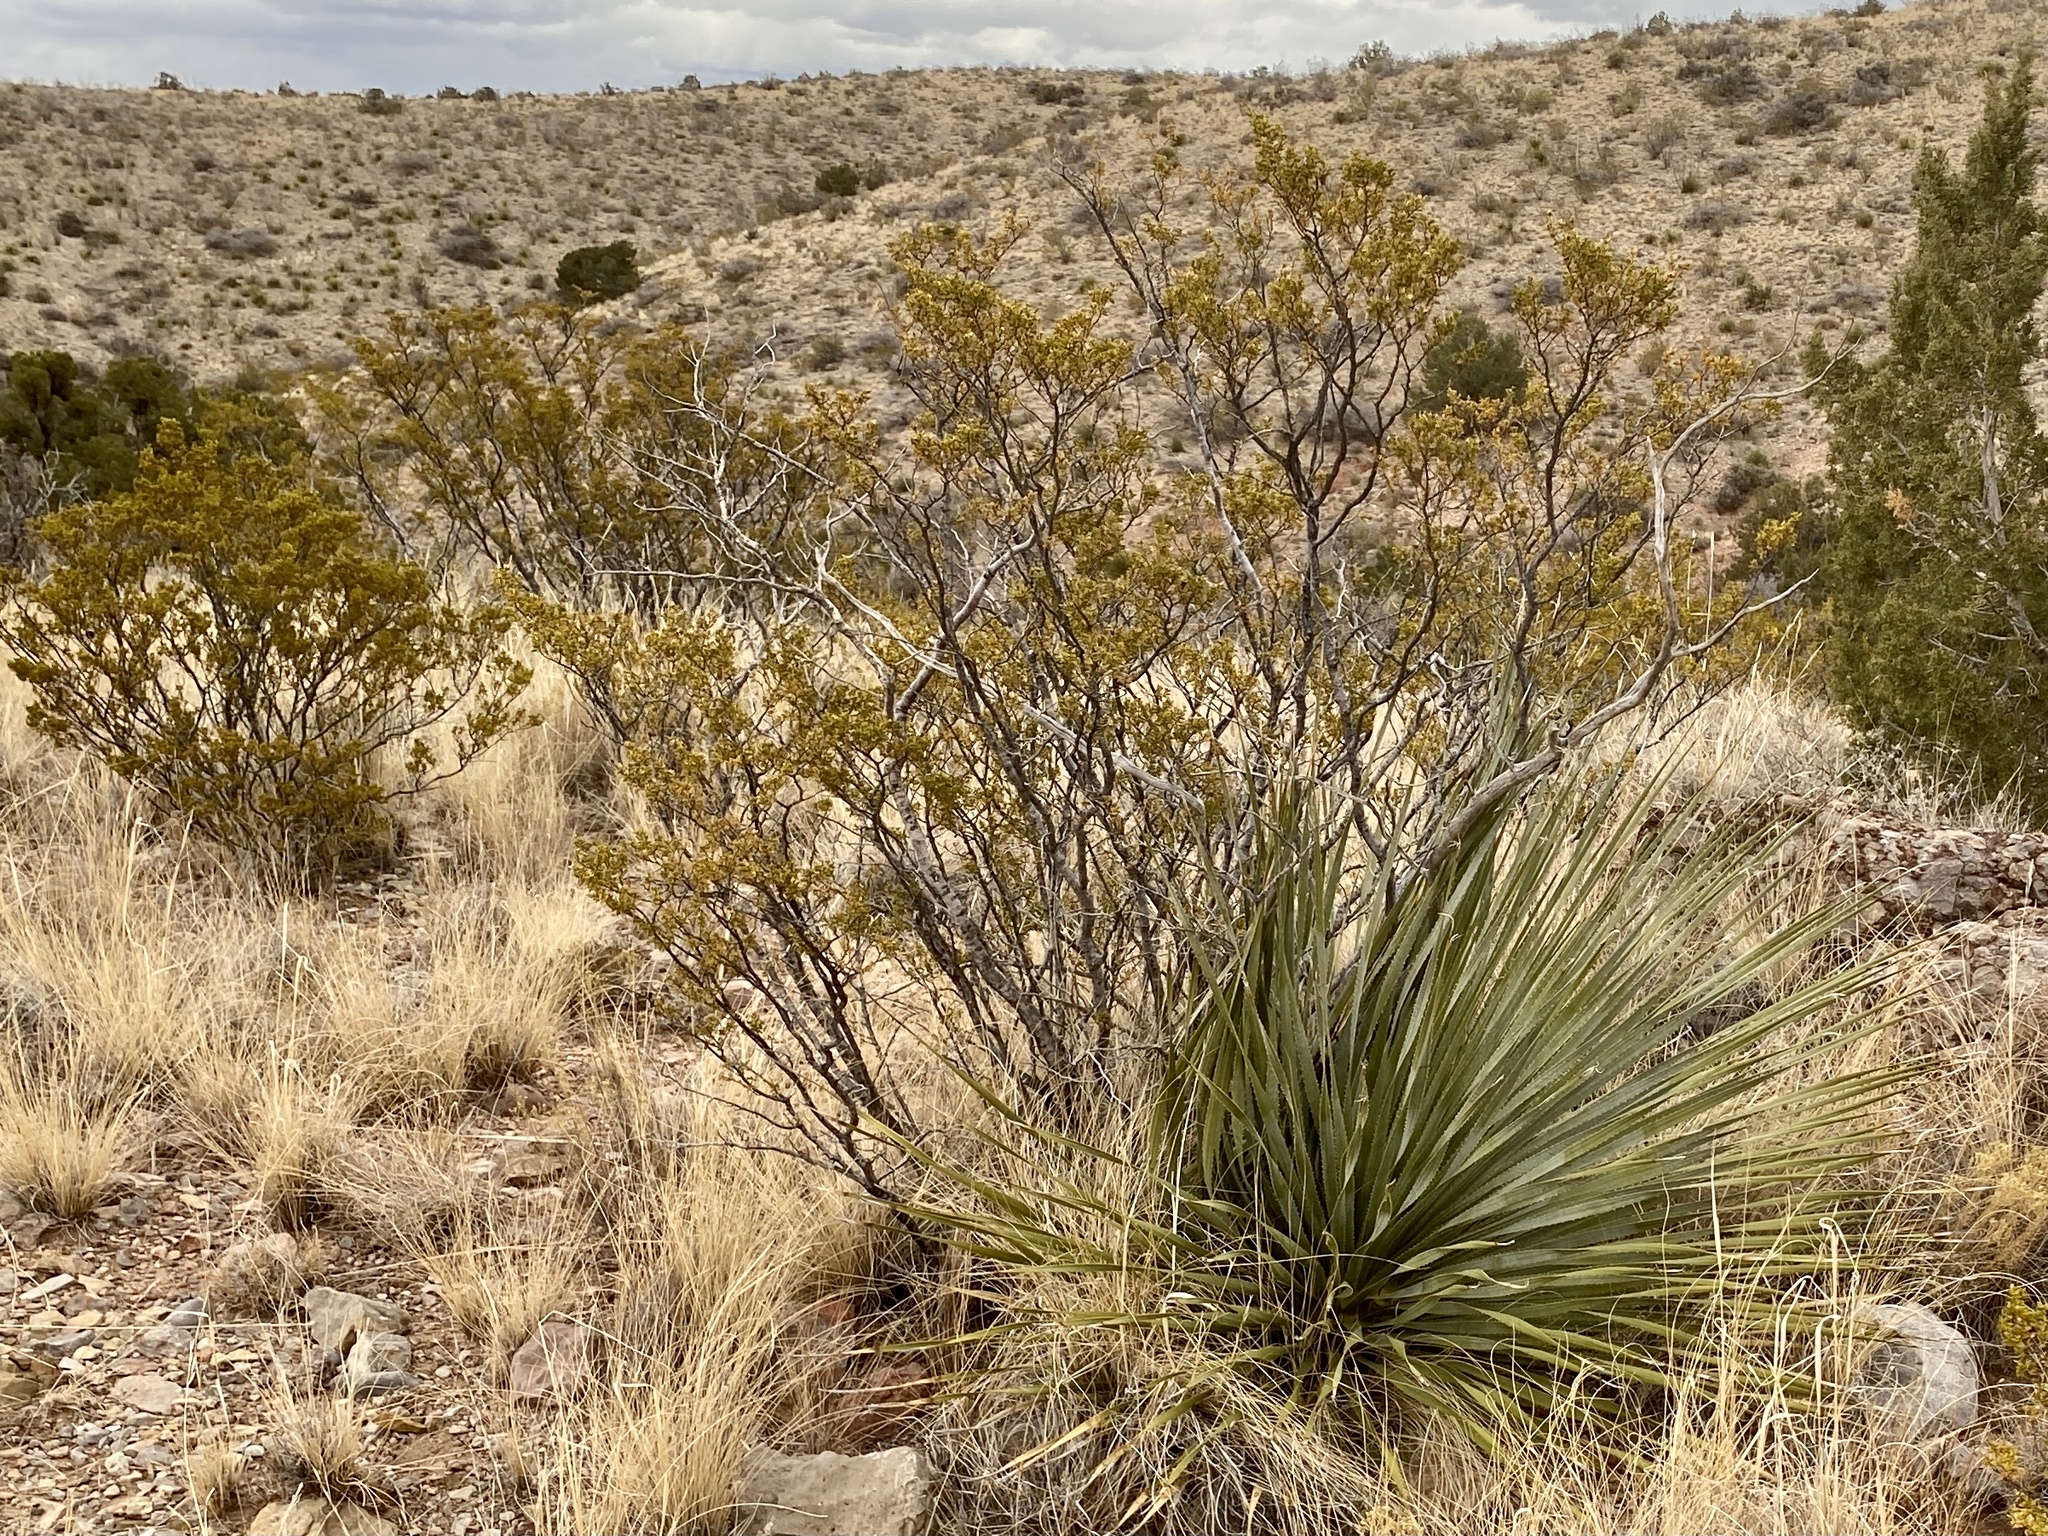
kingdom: Plantae
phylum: Tracheophyta
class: Magnoliopsida
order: Zygophyllales
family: Zygophyllaceae
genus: Larrea
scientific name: Larrea tridentata
